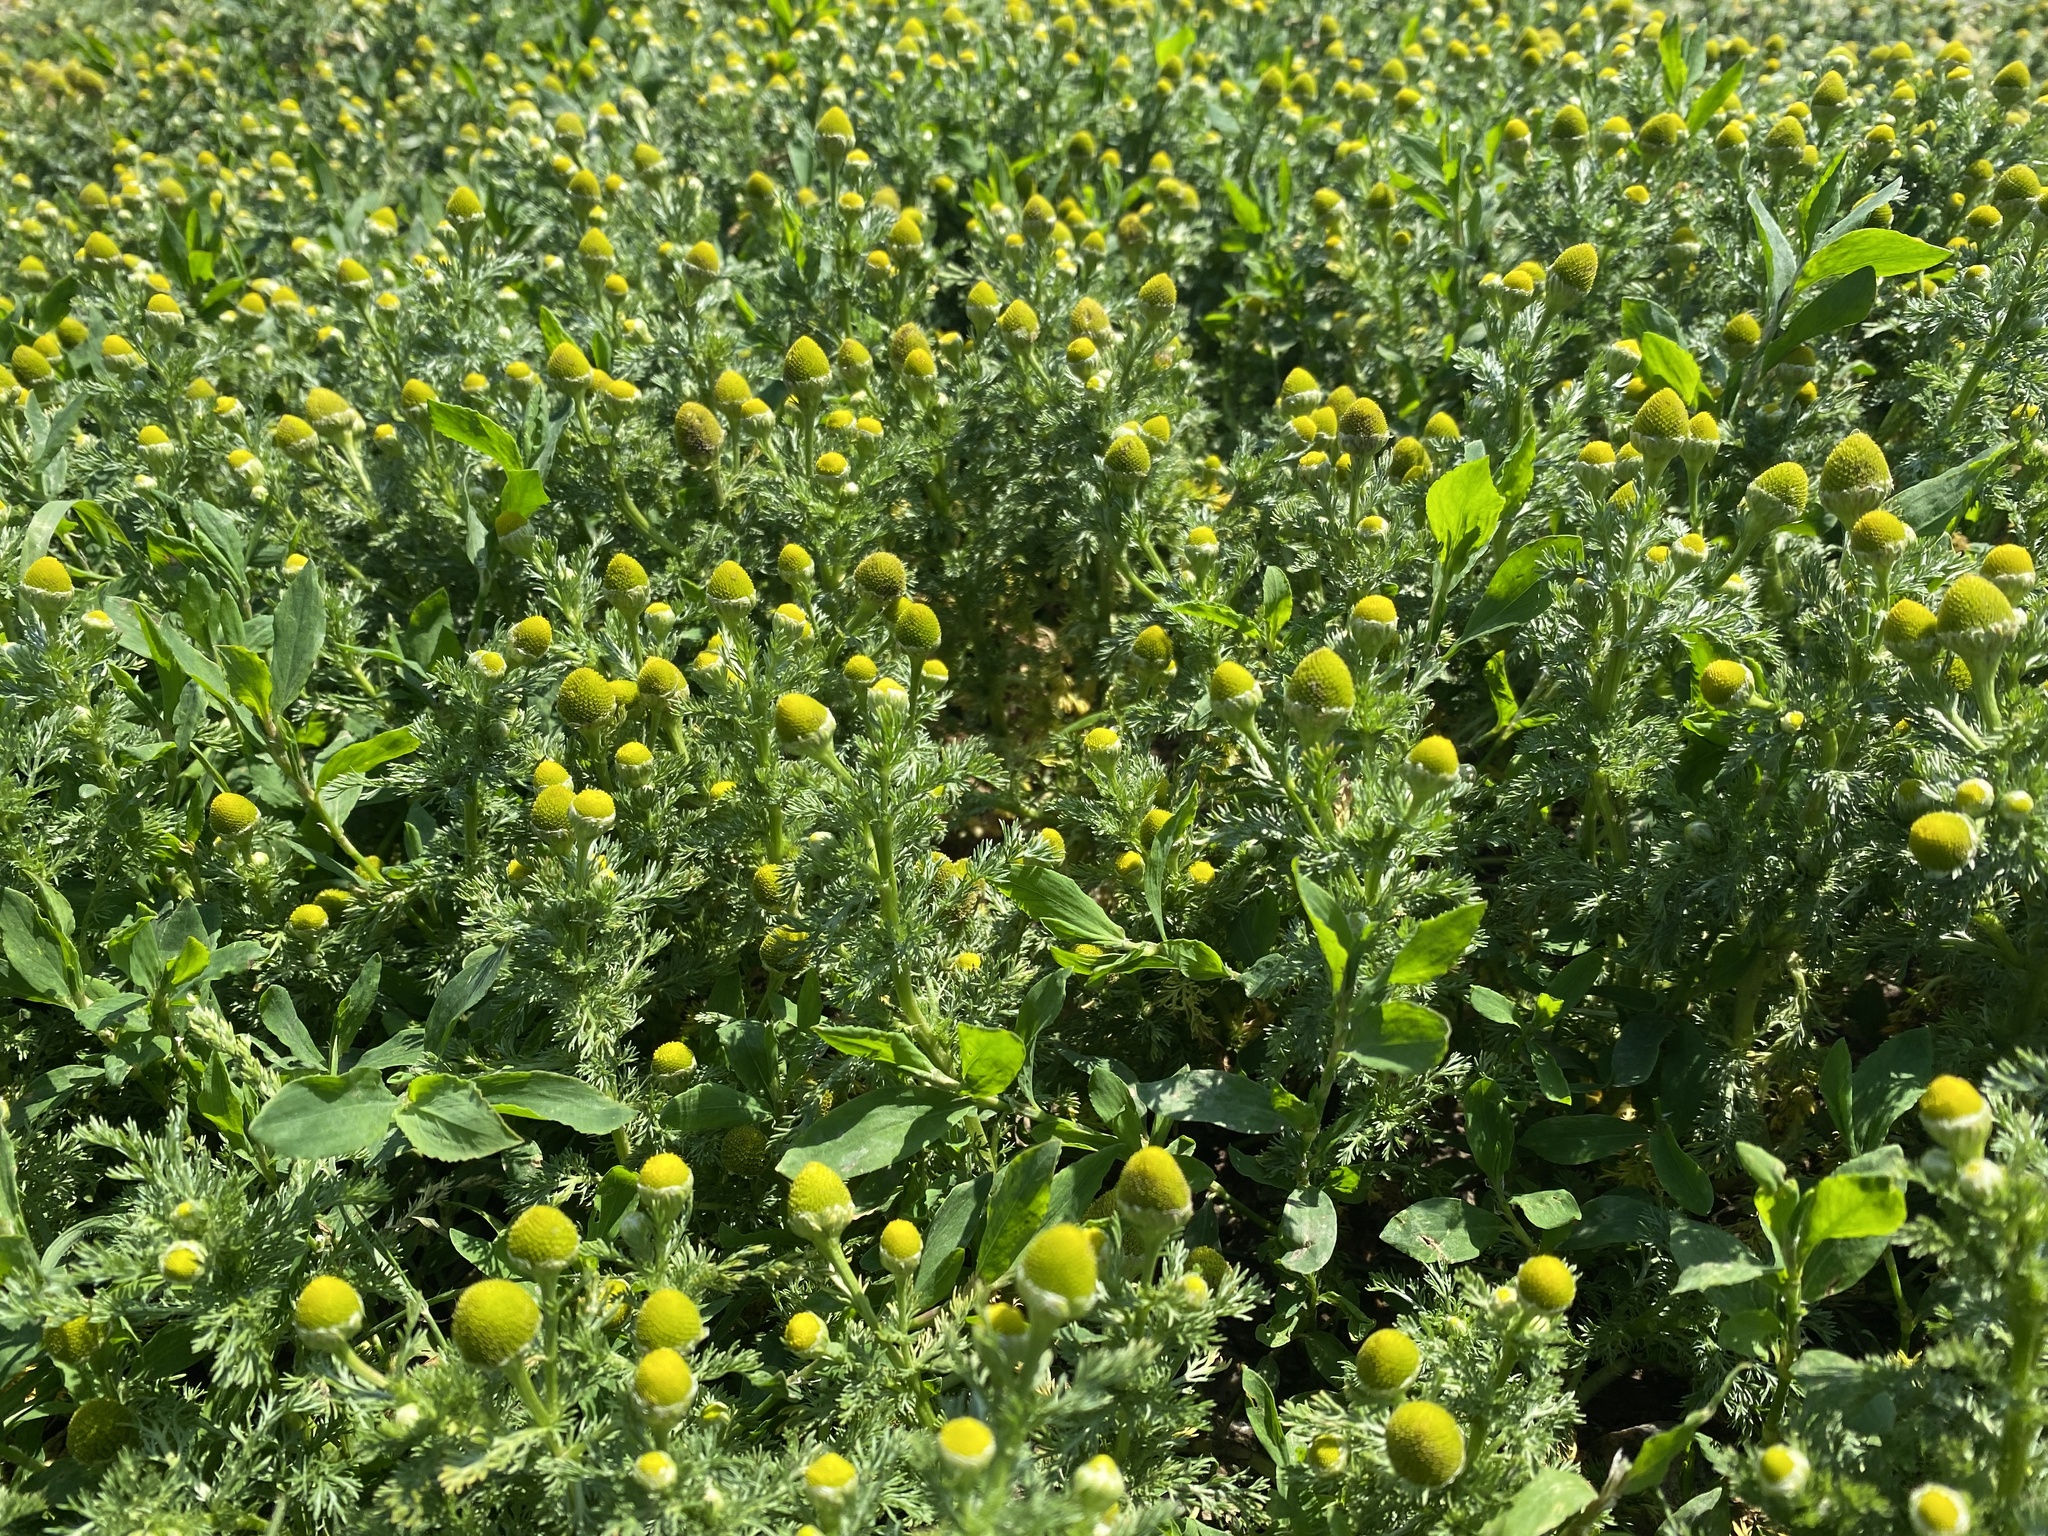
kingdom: Plantae
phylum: Tracheophyta
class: Magnoliopsida
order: Asterales
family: Asteraceae
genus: Matricaria
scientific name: Matricaria discoidea
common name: Disc mayweed
